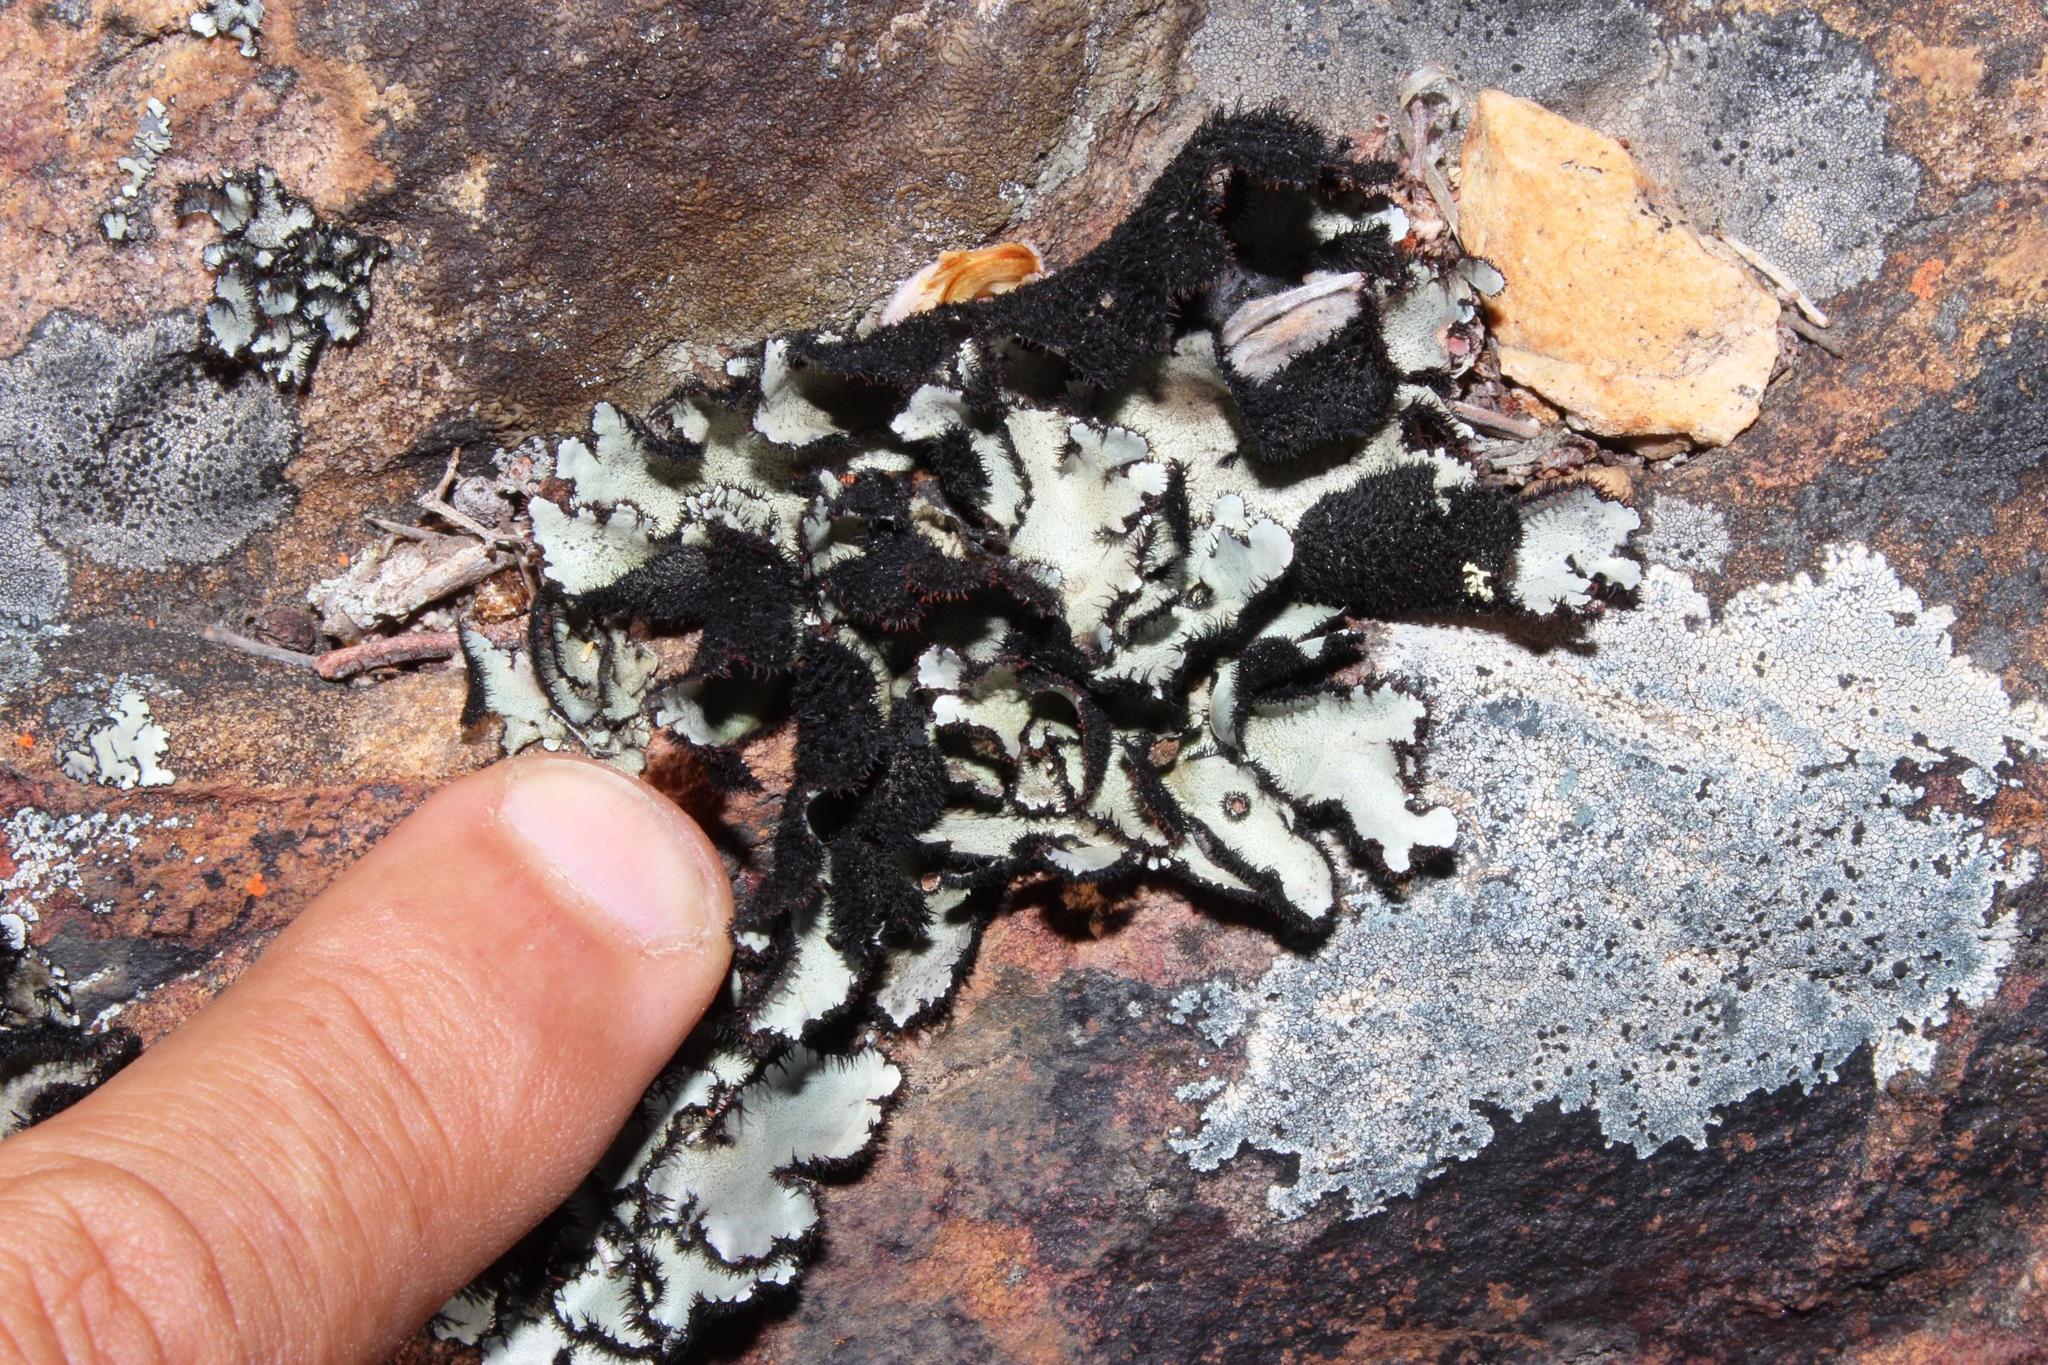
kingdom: Fungi
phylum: Ascomycota
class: Lecanoromycetes
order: Lecanorales
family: Parmeliaceae
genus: Xanthoparmelia
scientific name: Xanthoparmelia hottentotta
